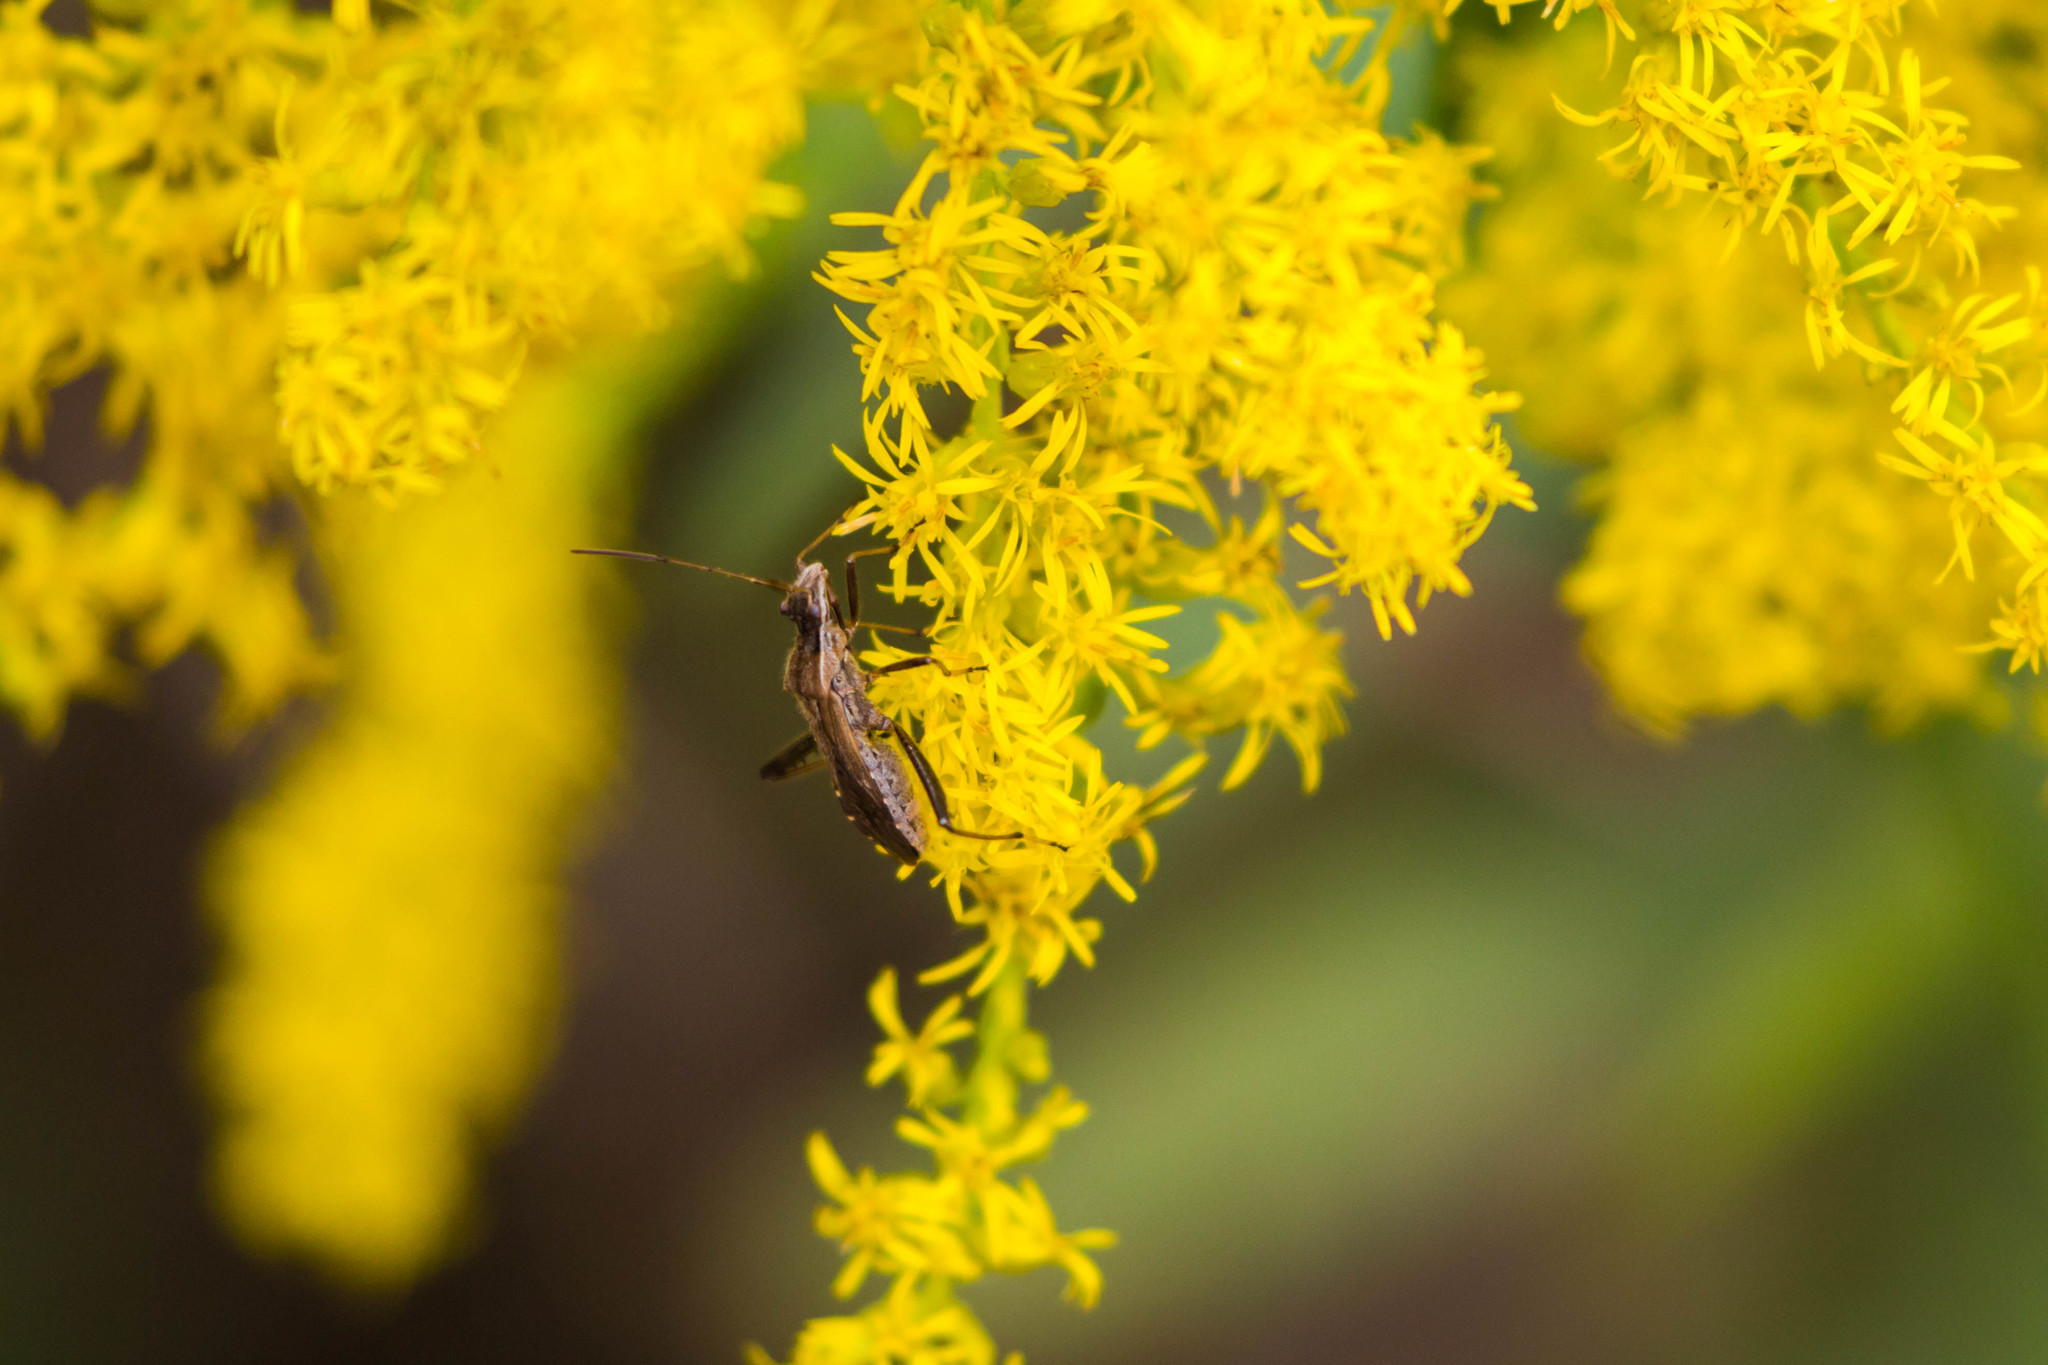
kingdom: Animalia
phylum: Arthropoda
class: Insecta
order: Hemiptera
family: Alydidae
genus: Alydus
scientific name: Alydus pilosulus
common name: Broad-headed bug
